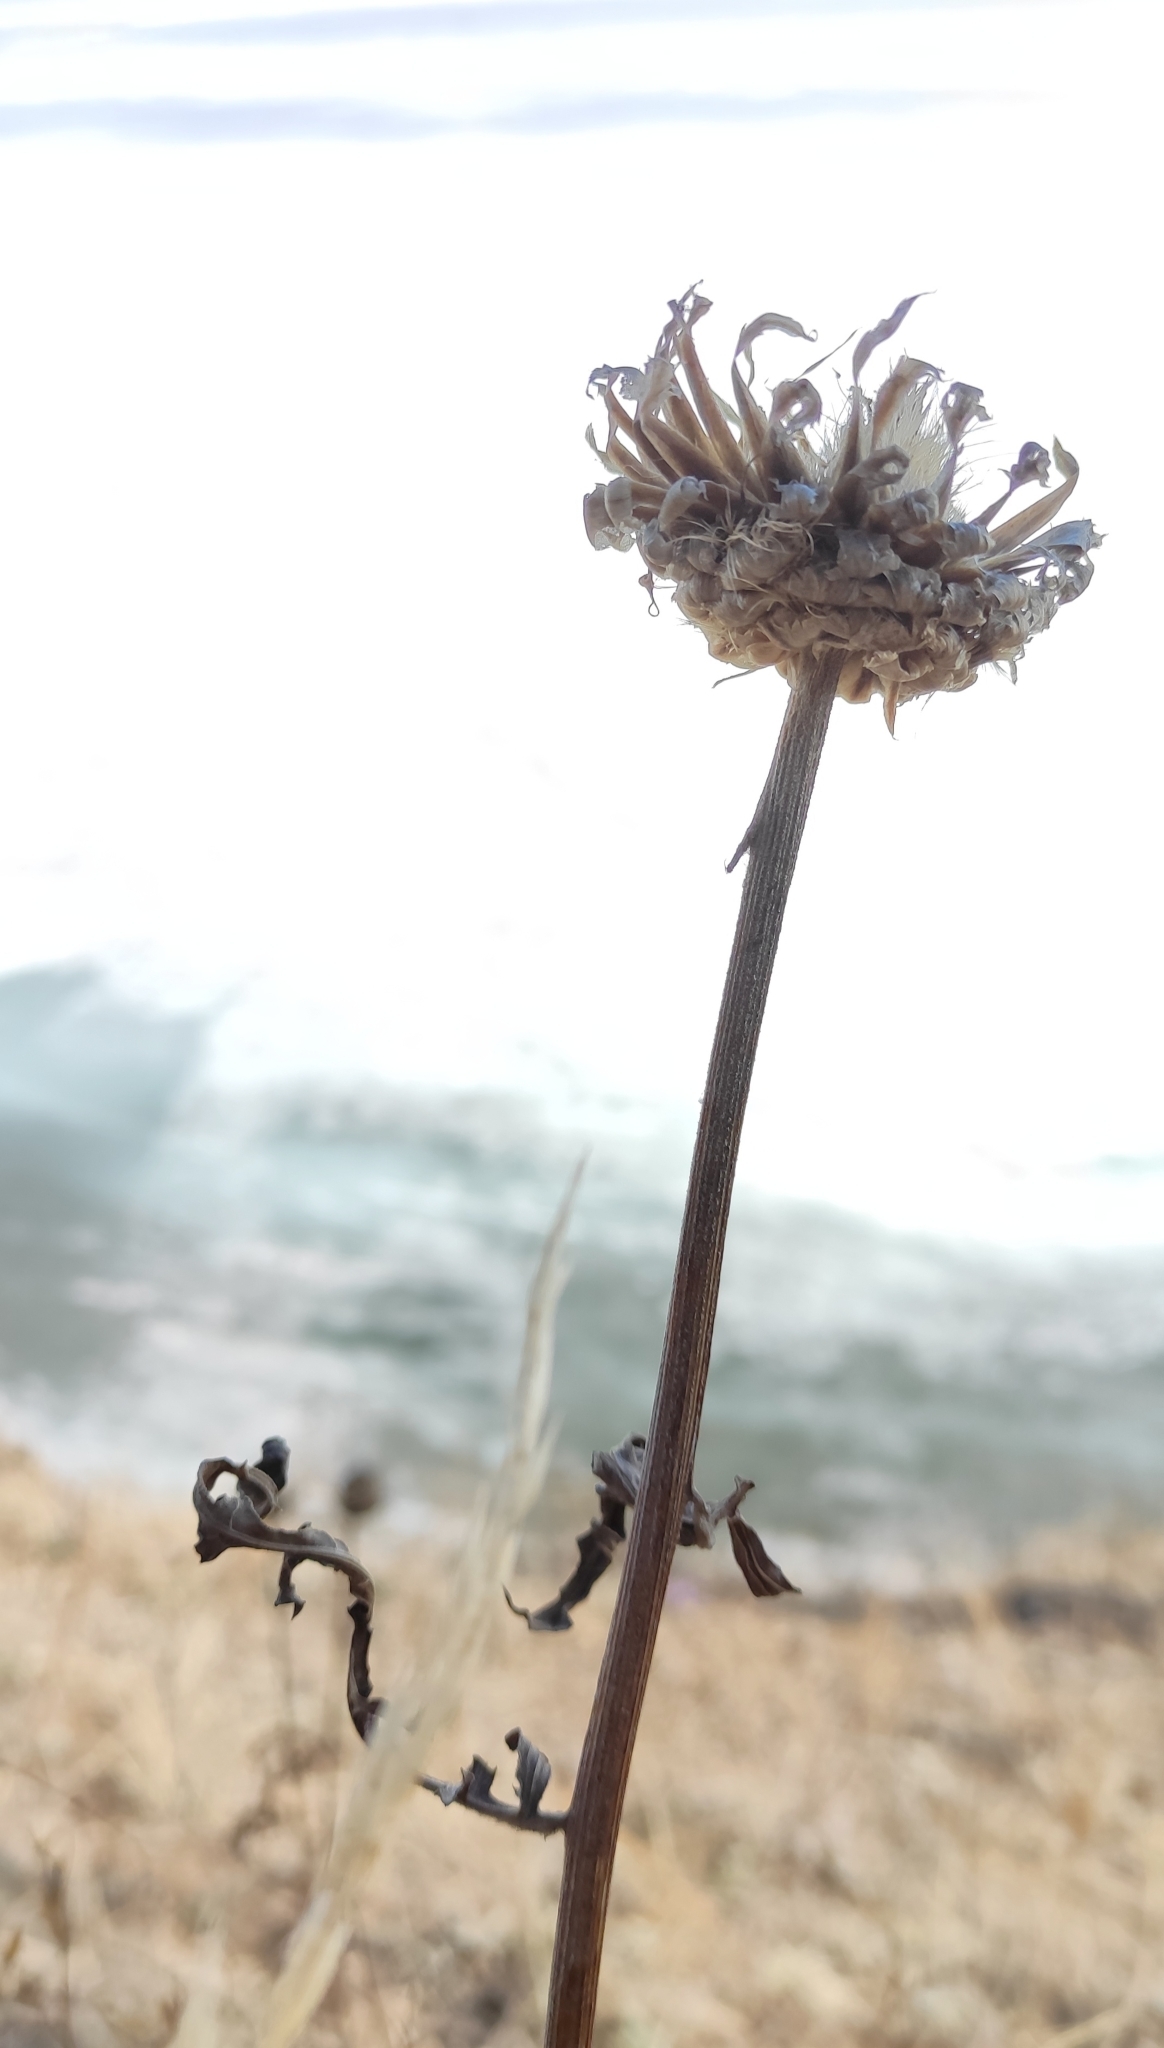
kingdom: Plantae
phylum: Tracheophyta
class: Magnoliopsida
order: Asterales
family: Asteraceae
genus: Leuzea
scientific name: Leuzea uniflora
